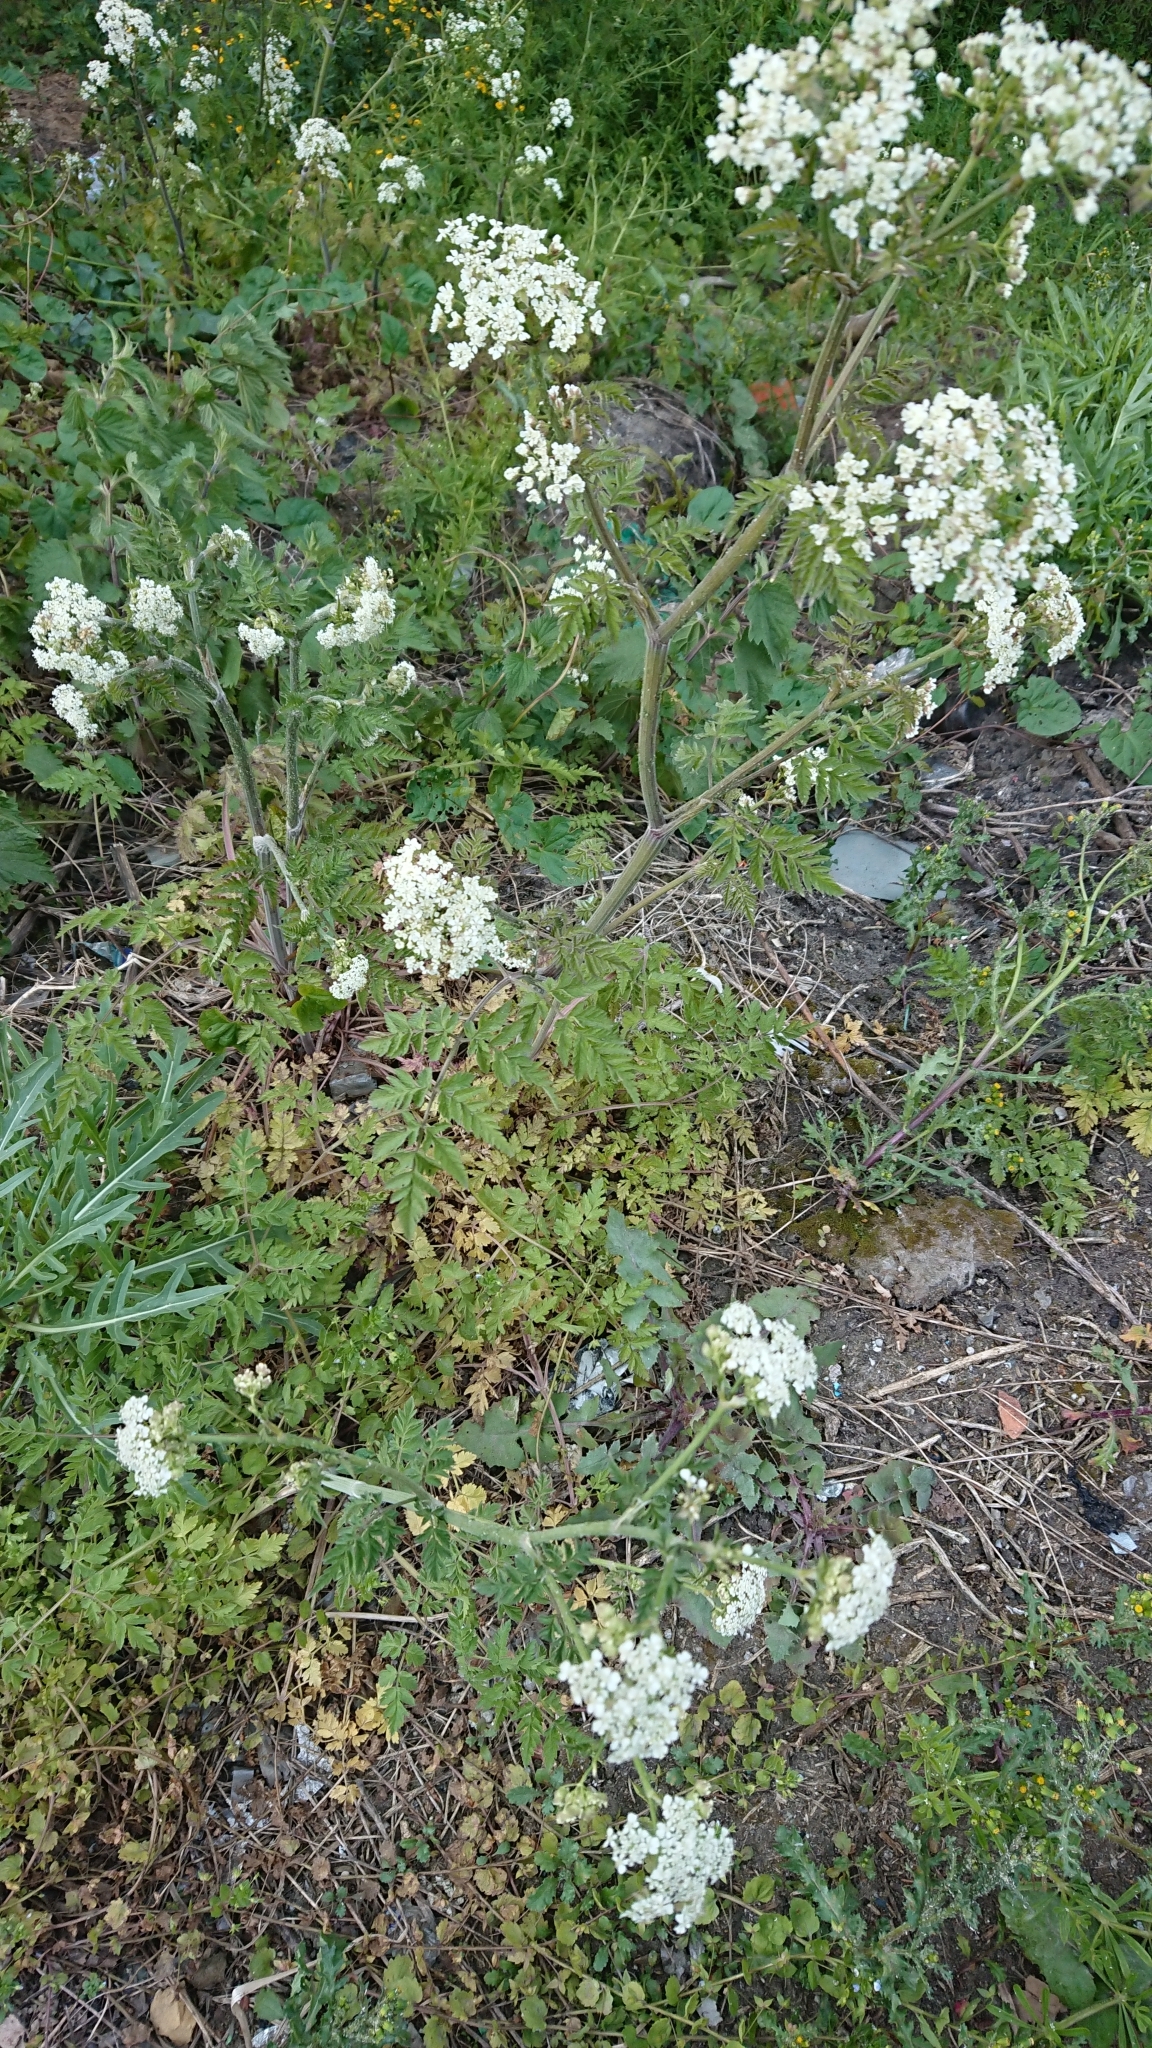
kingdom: Plantae
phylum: Tracheophyta
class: Magnoliopsida
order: Apiales
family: Apiaceae
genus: Anthriscus
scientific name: Anthriscus sylvestris
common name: Cow parsley
